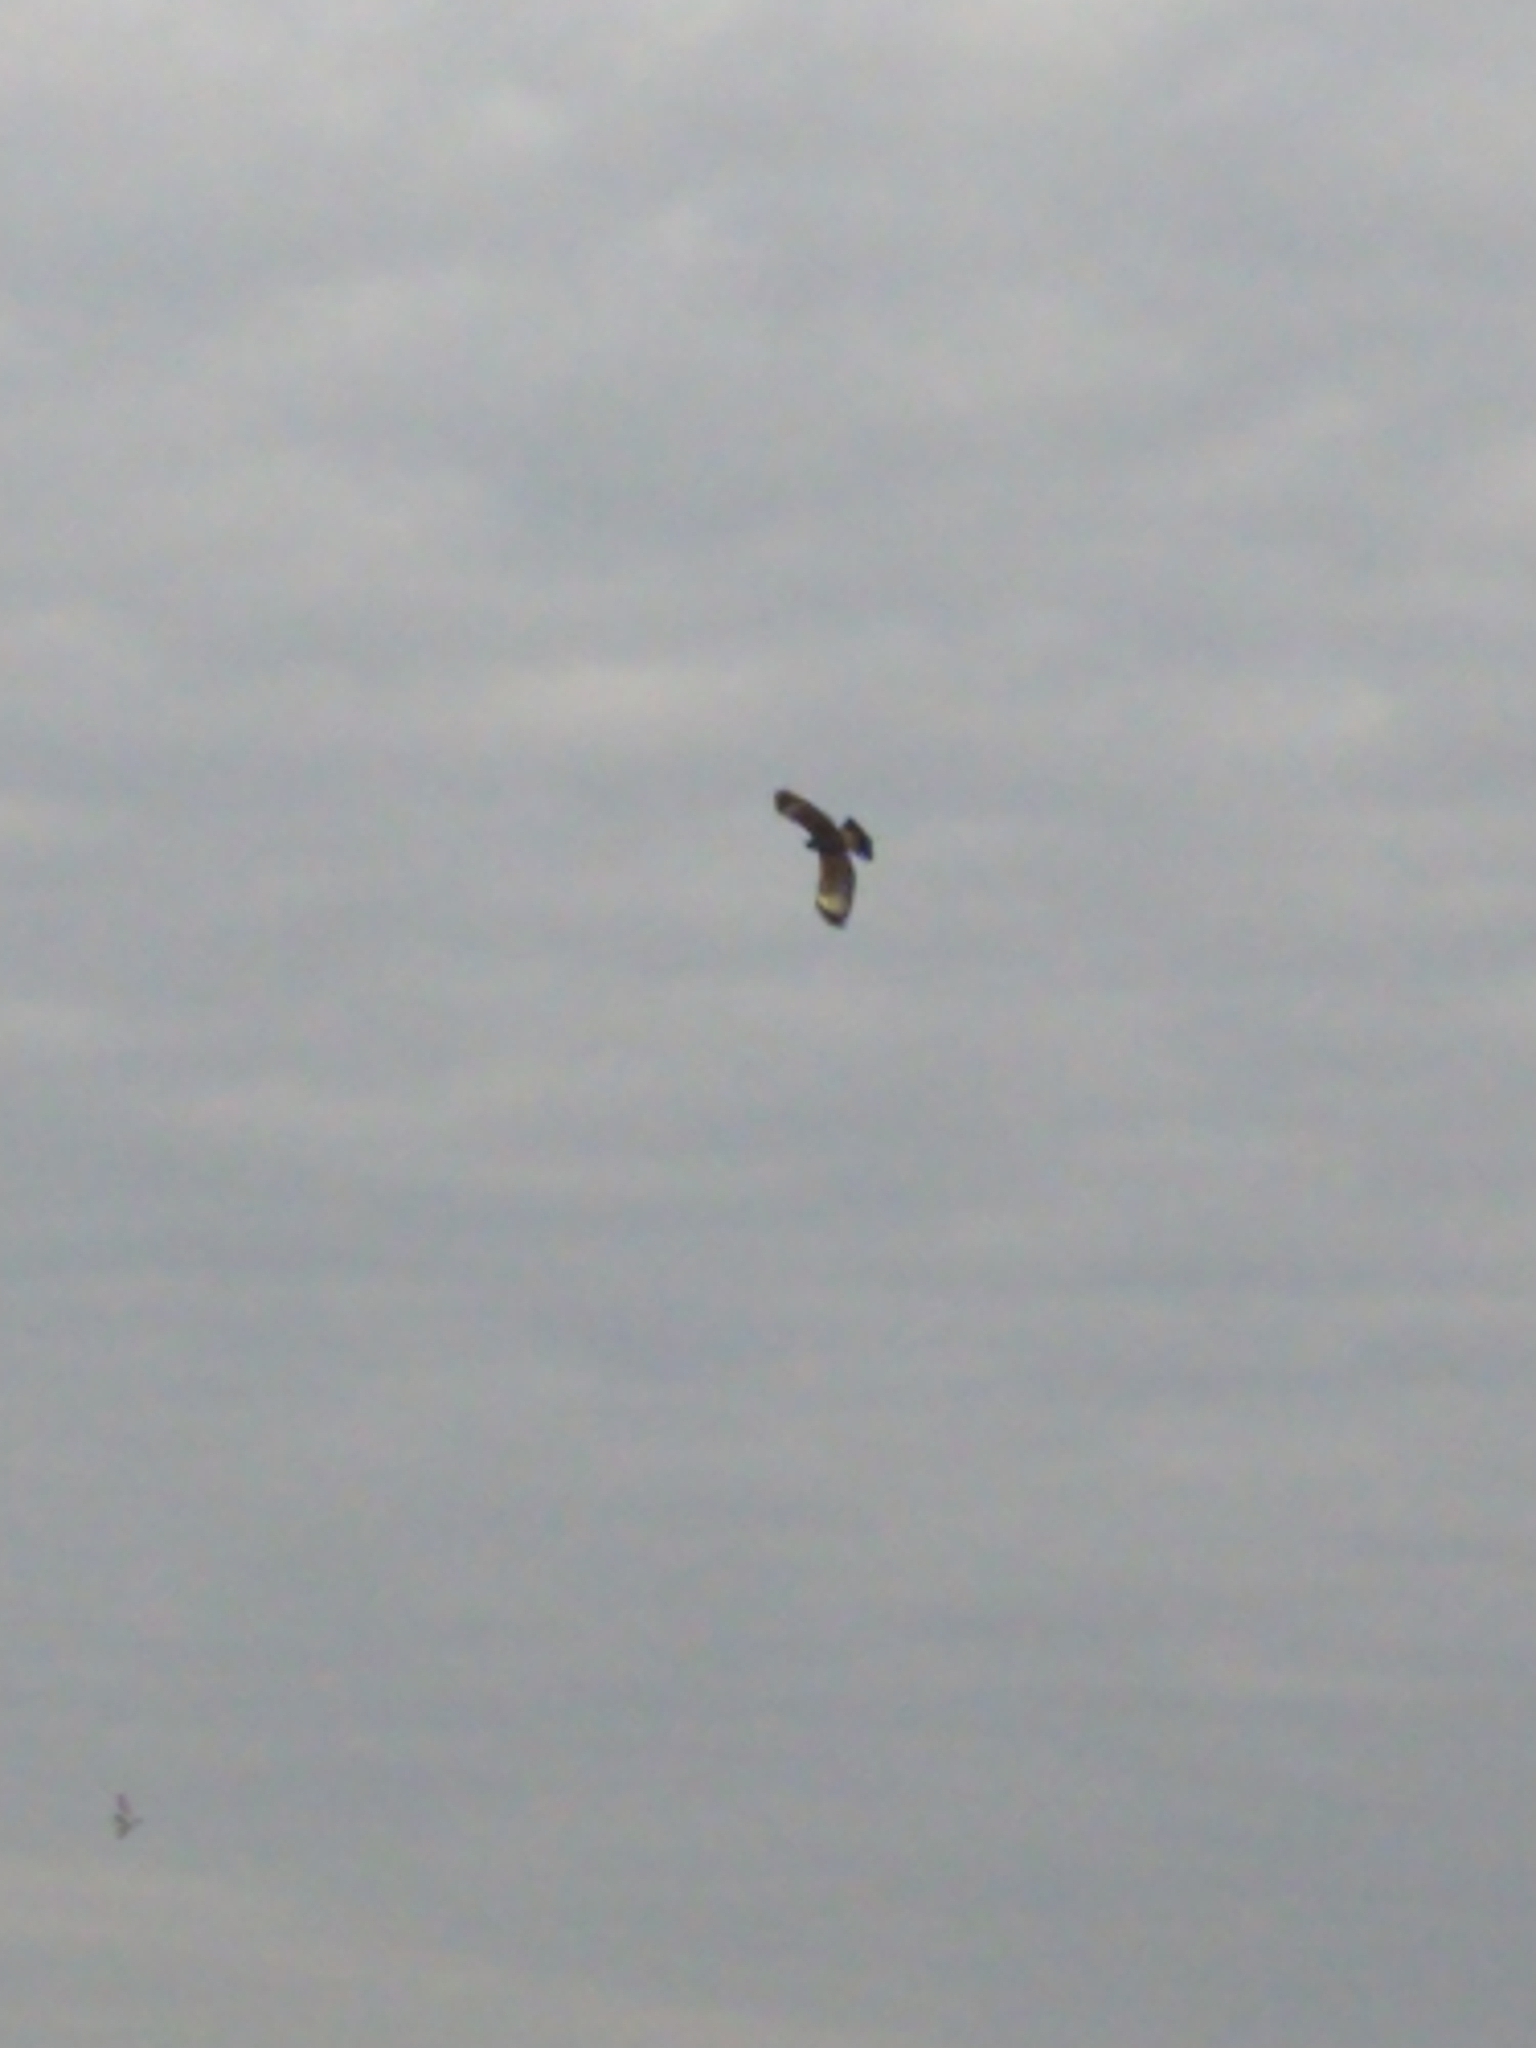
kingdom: Animalia
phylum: Chordata
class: Aves
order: Accipitriformes
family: Accipitridae
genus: Parabuteo
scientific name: Parabuteo unicinctus
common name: Harris's hawk
